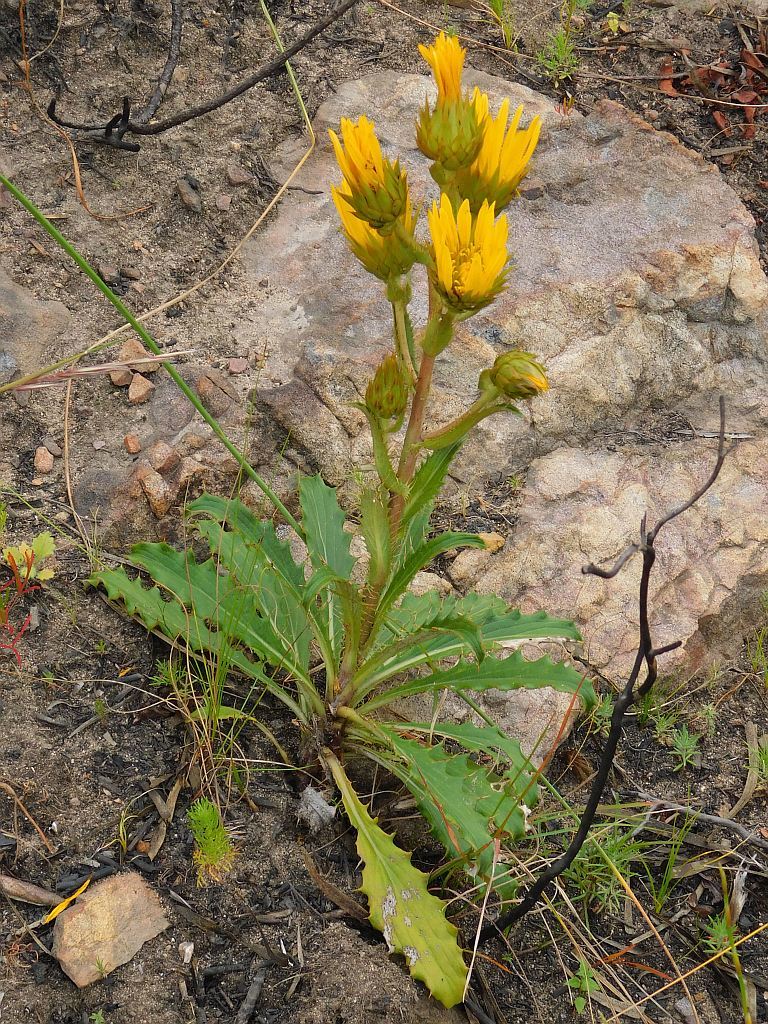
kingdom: Plantae
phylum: Tracheophyta
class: Magnoliopsida
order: Asterales
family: Asteraceae
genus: Berkheya
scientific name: Berkheya armata
